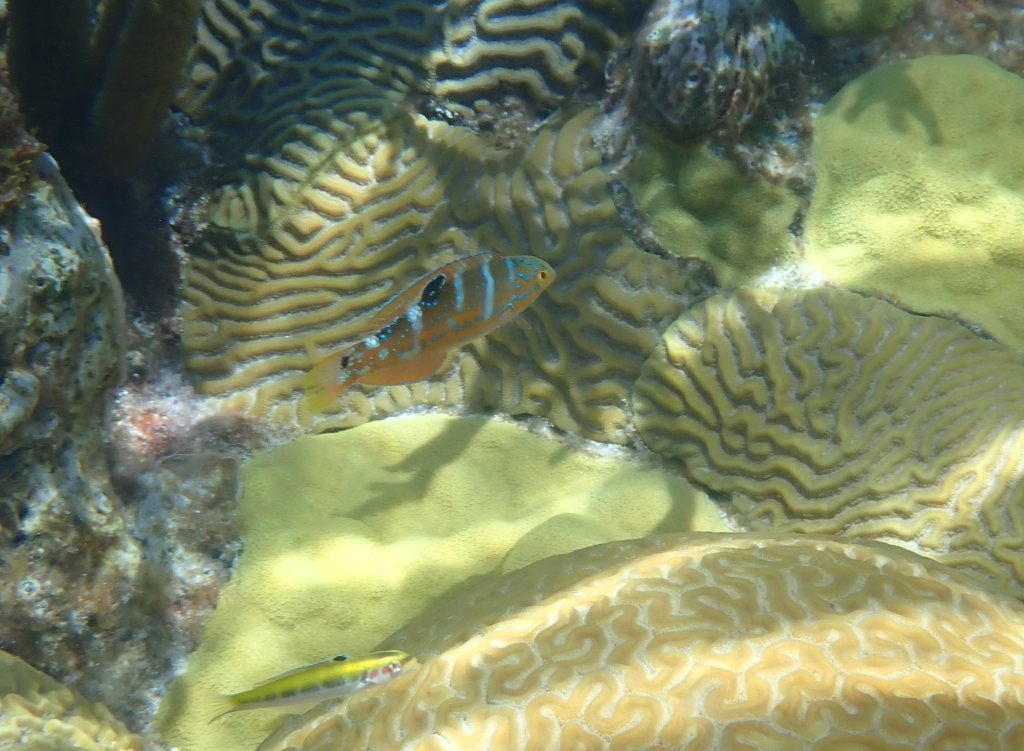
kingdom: Animalia
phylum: Chordata
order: Perciformes
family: Labridae
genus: Halichoeres
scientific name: Halichoeres radiatus
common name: Puddingwife
